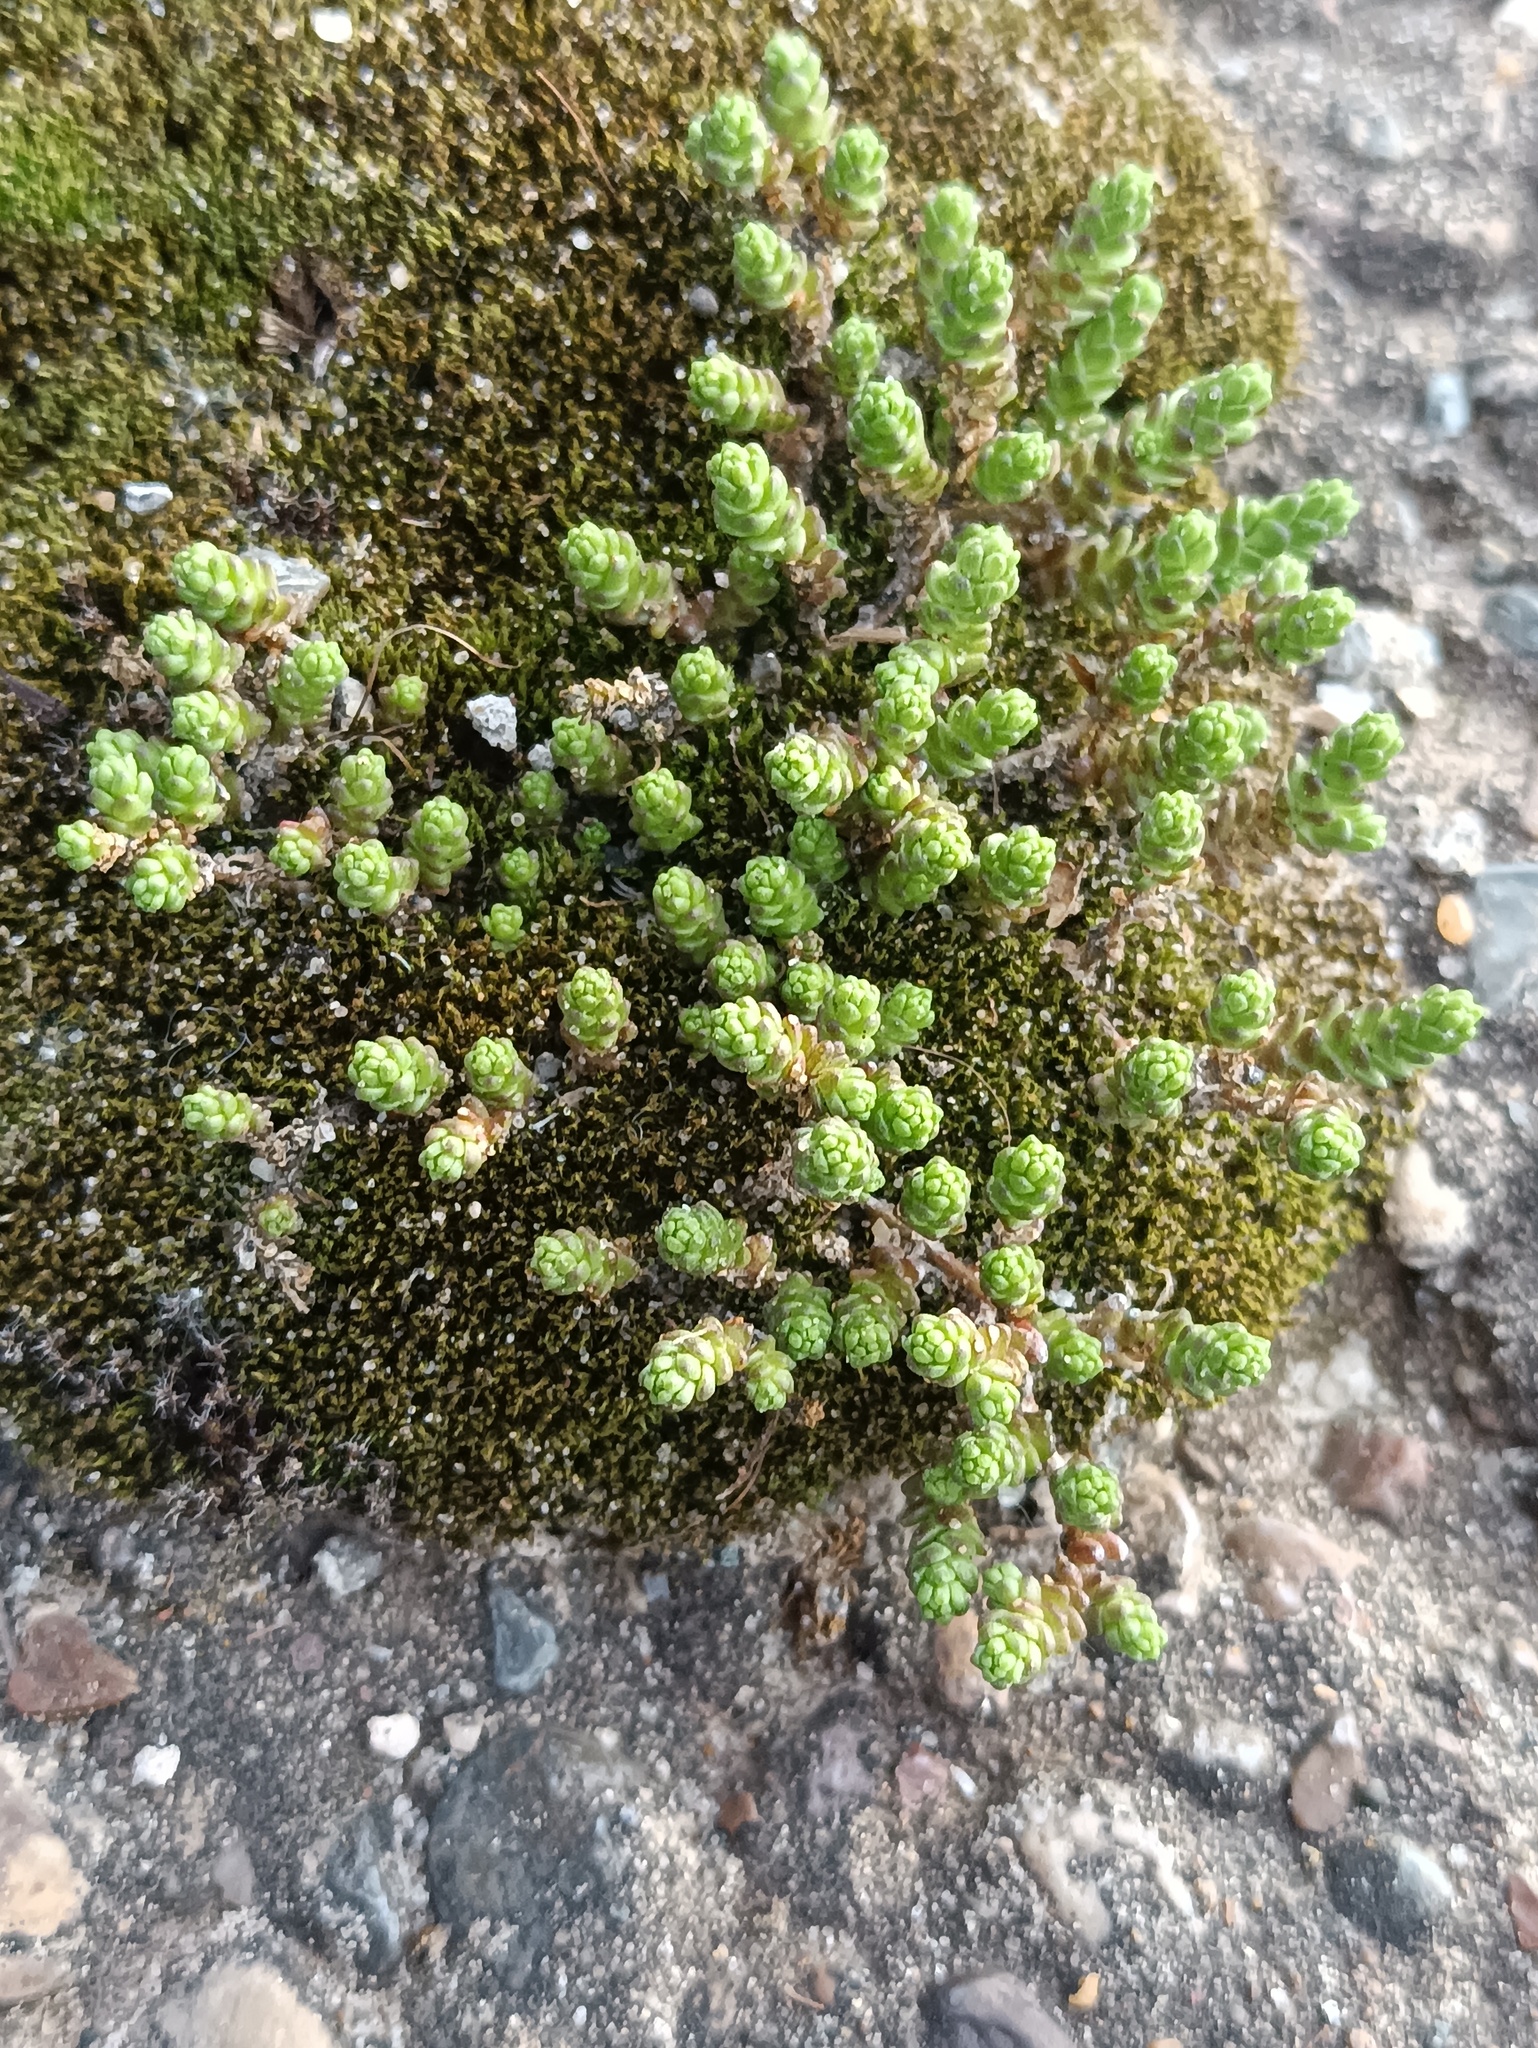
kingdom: Plantae
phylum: Tracheophyta
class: Magnoliopsida
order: Saxifragales
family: Crassulaceae
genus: Sedum
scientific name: Sedum acre
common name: Biting stonecrop
